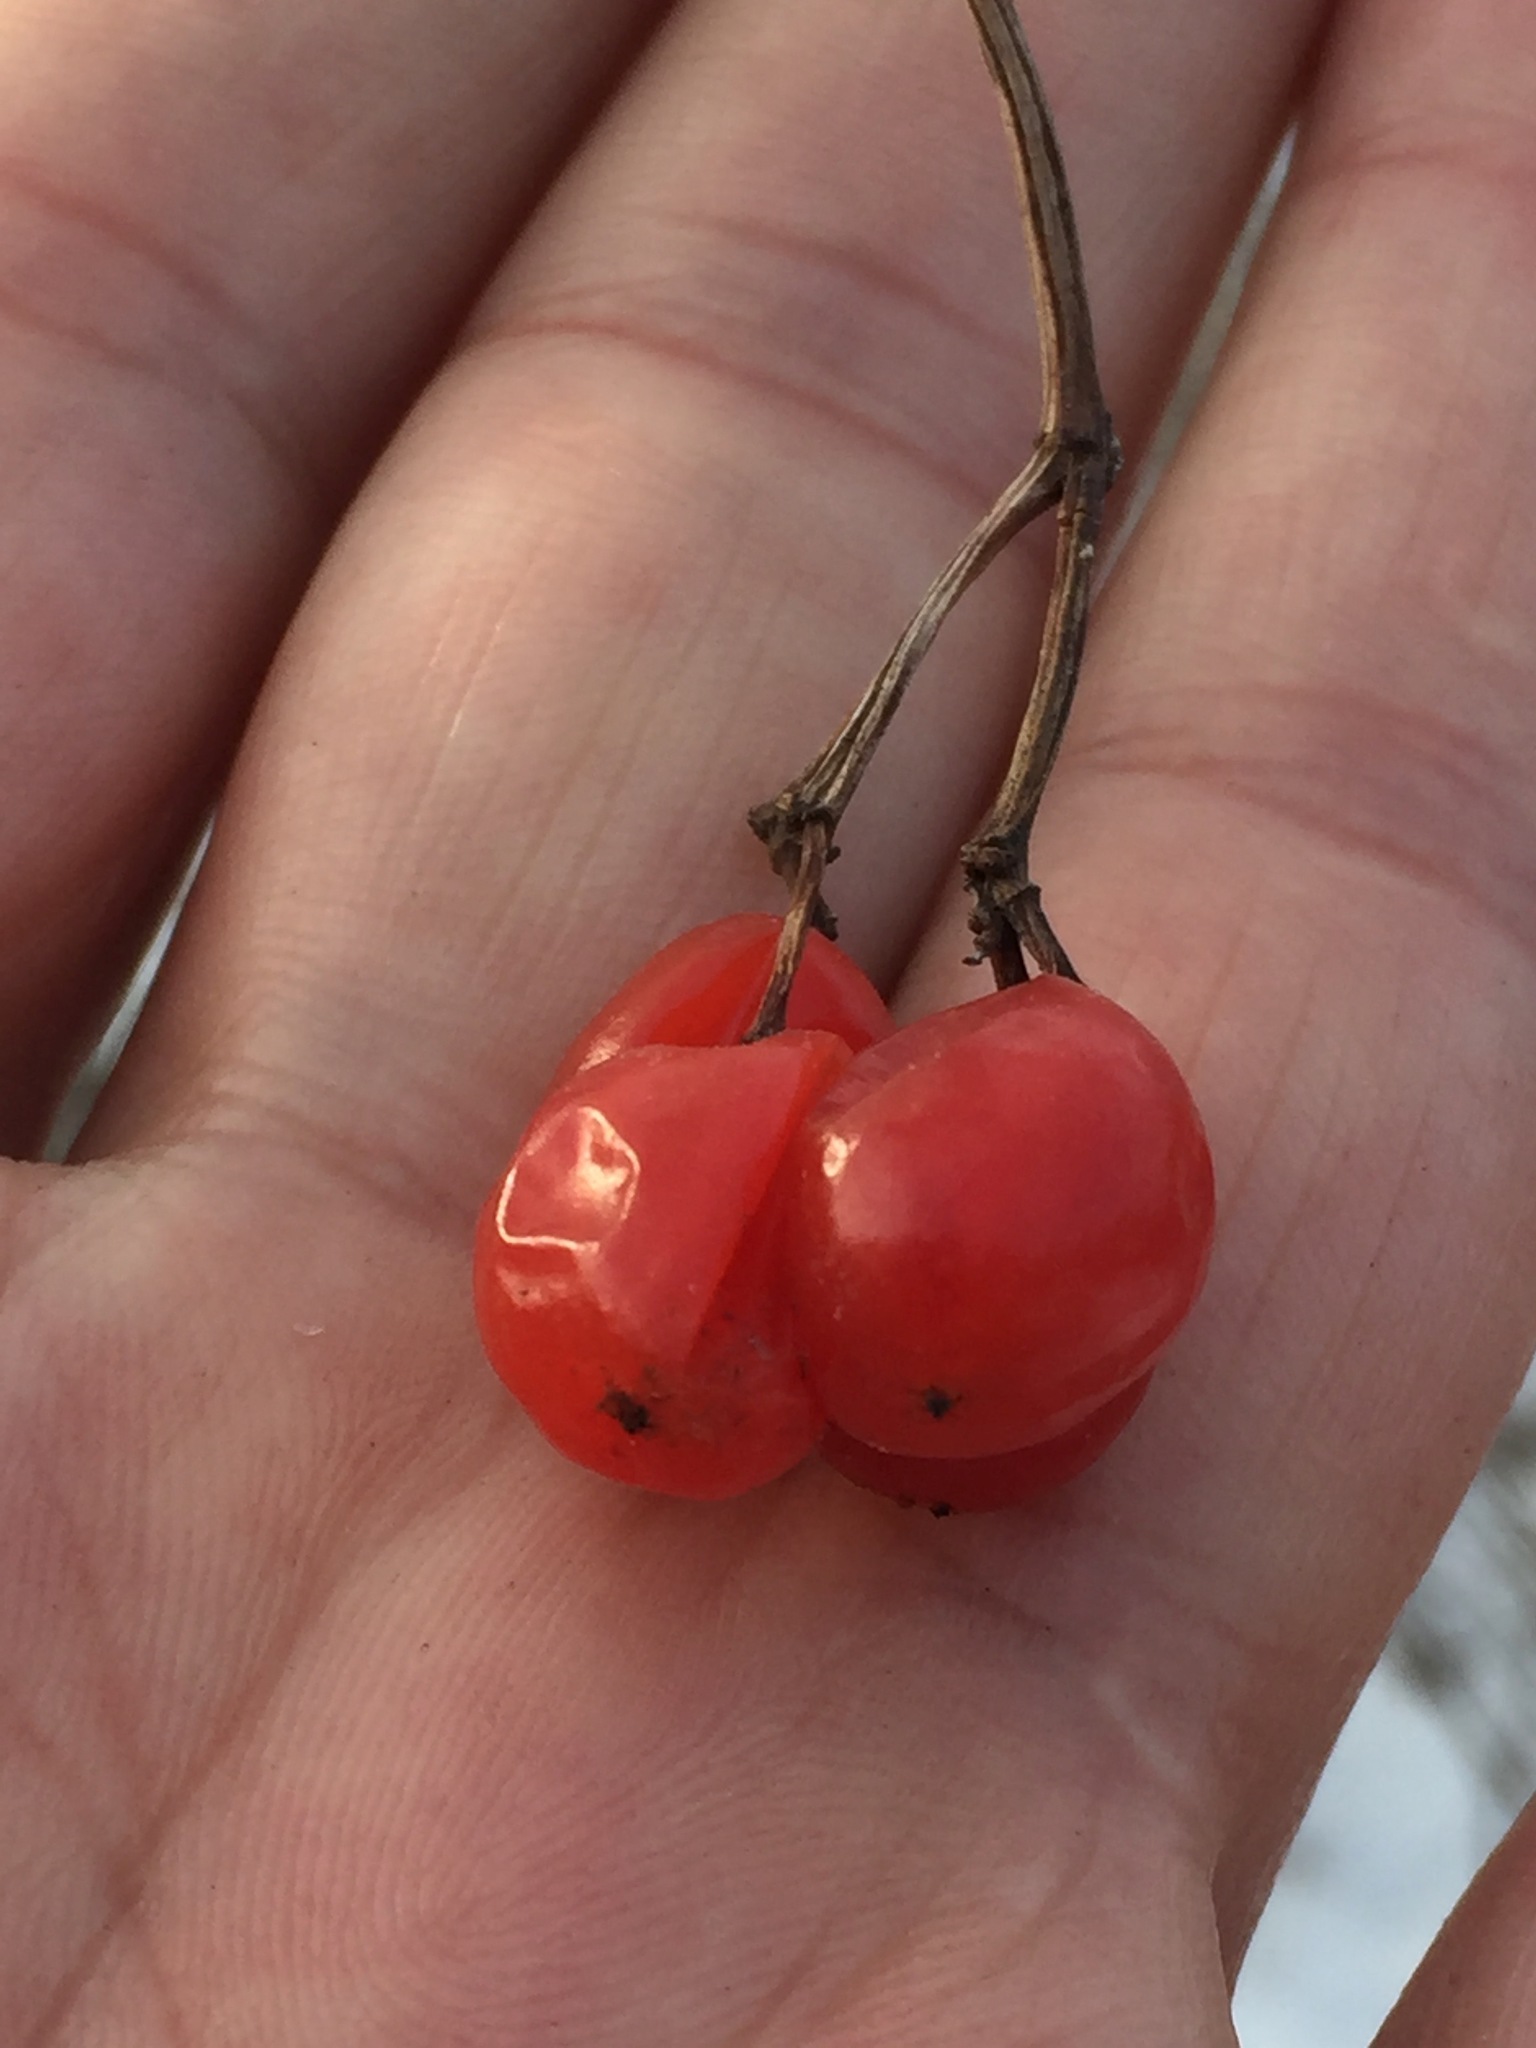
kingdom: Plantae
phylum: Tracheophyta
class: Magnoliopsida
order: Dipsacales
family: Viburnaceae
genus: Viburnum
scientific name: Viburnum opulus
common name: Guelder-rose
